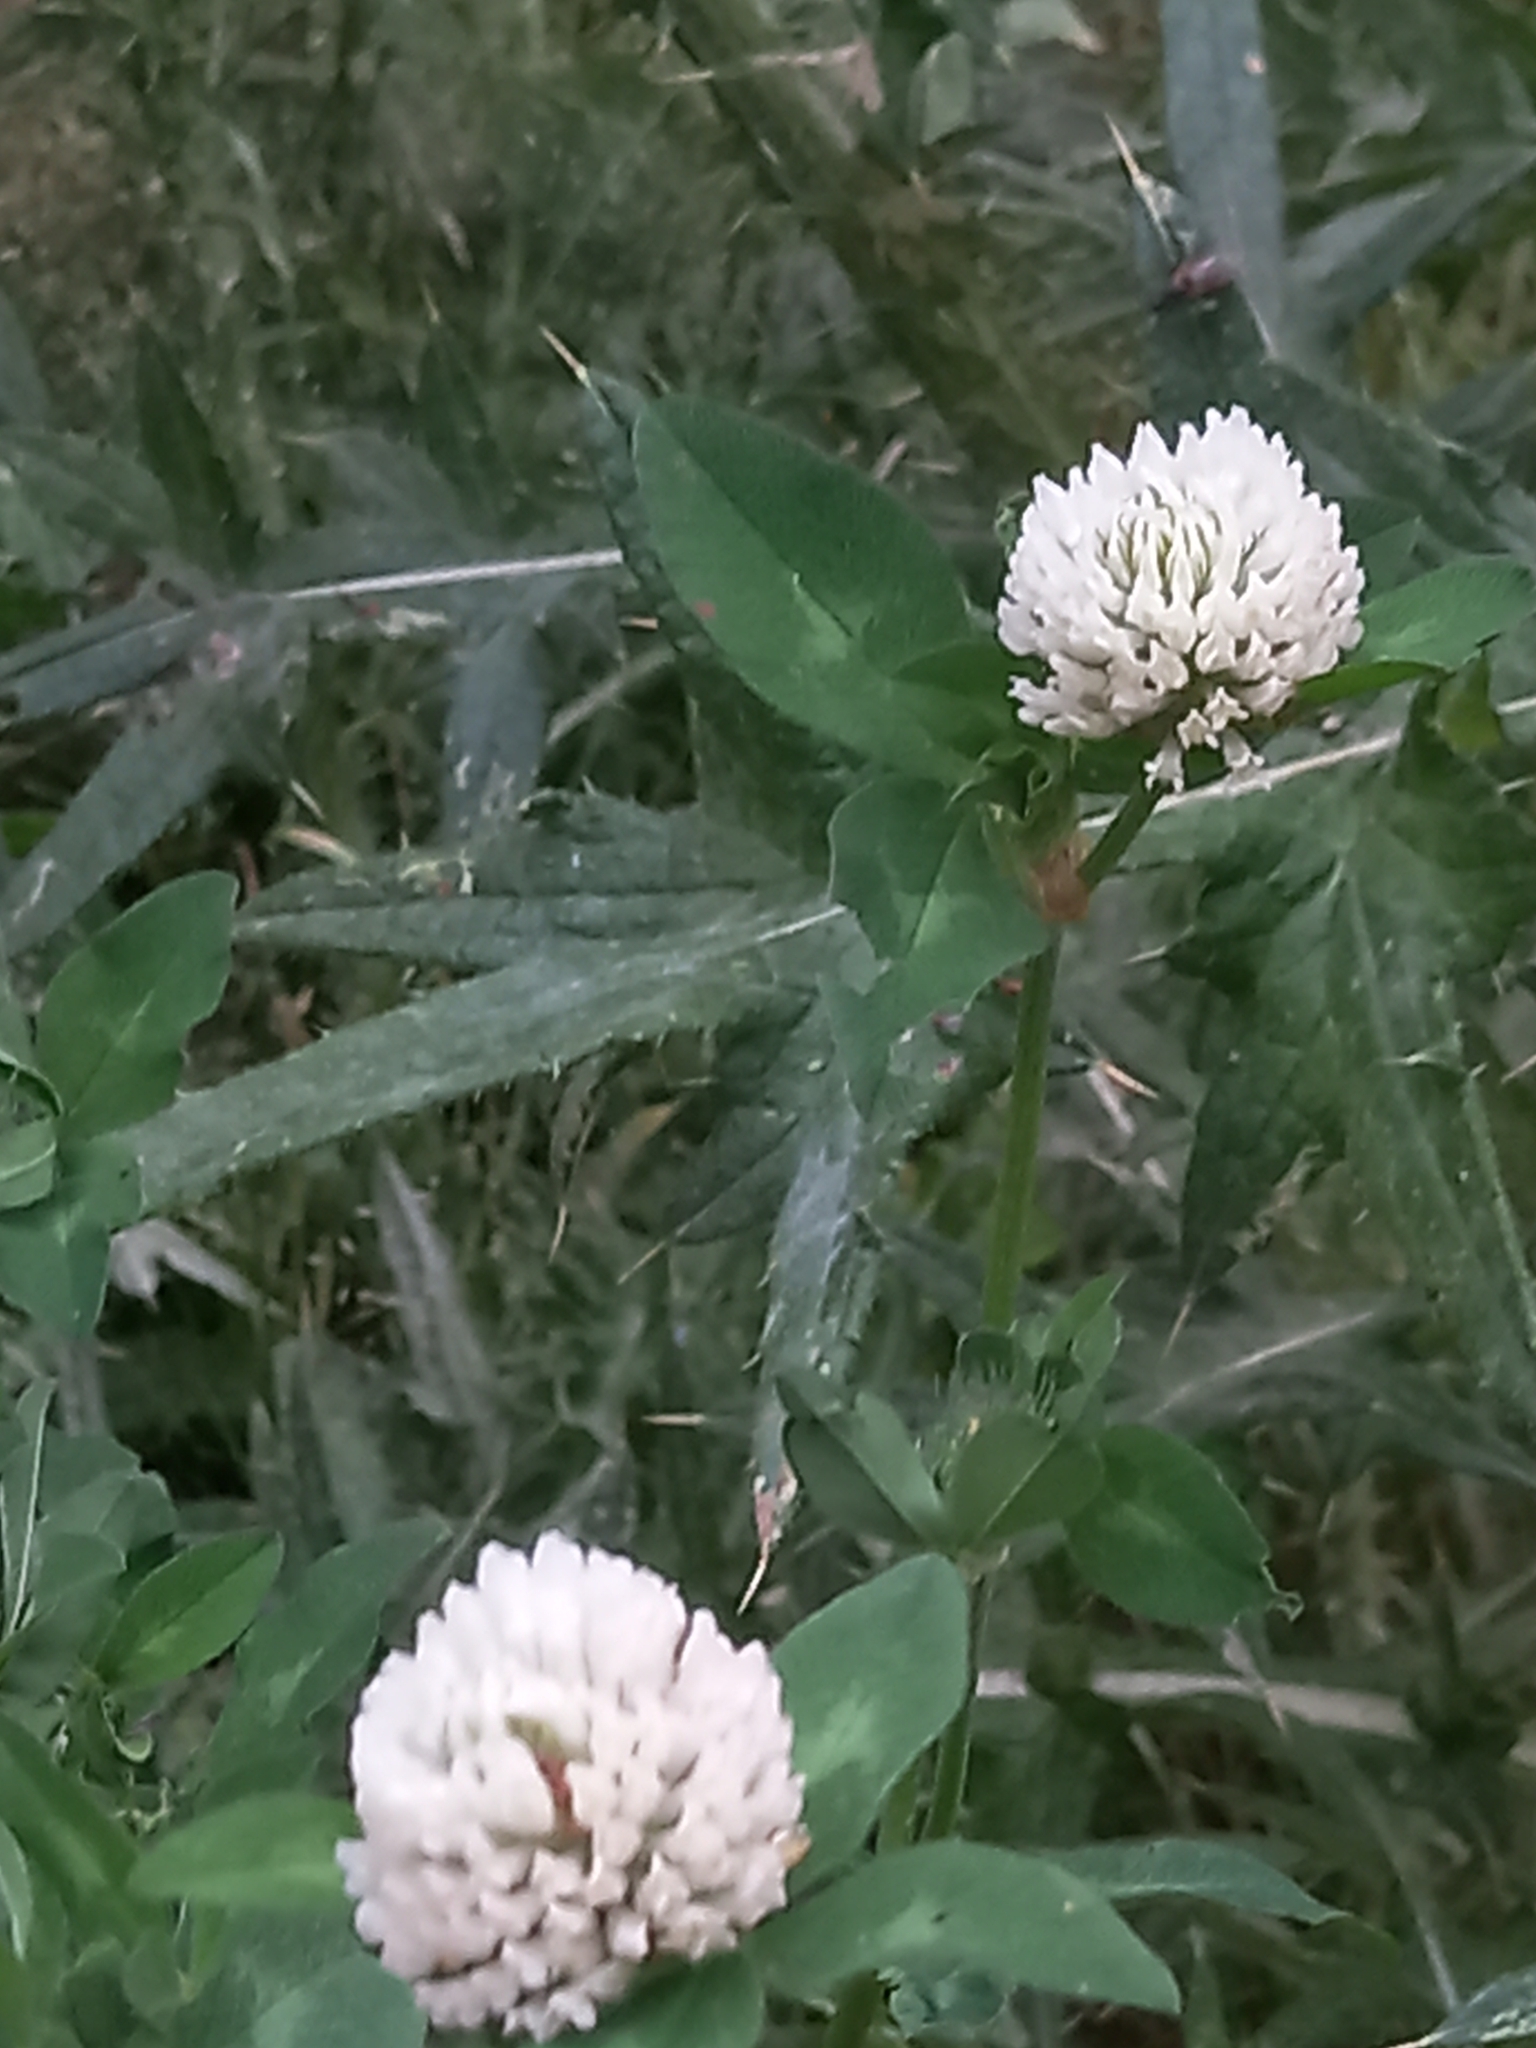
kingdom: Plantae
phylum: Tracheophyta
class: Magnoliopsida
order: Fabales
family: Fabaceae
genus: Trifolium
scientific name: Trifolium pratense
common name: Red clover
